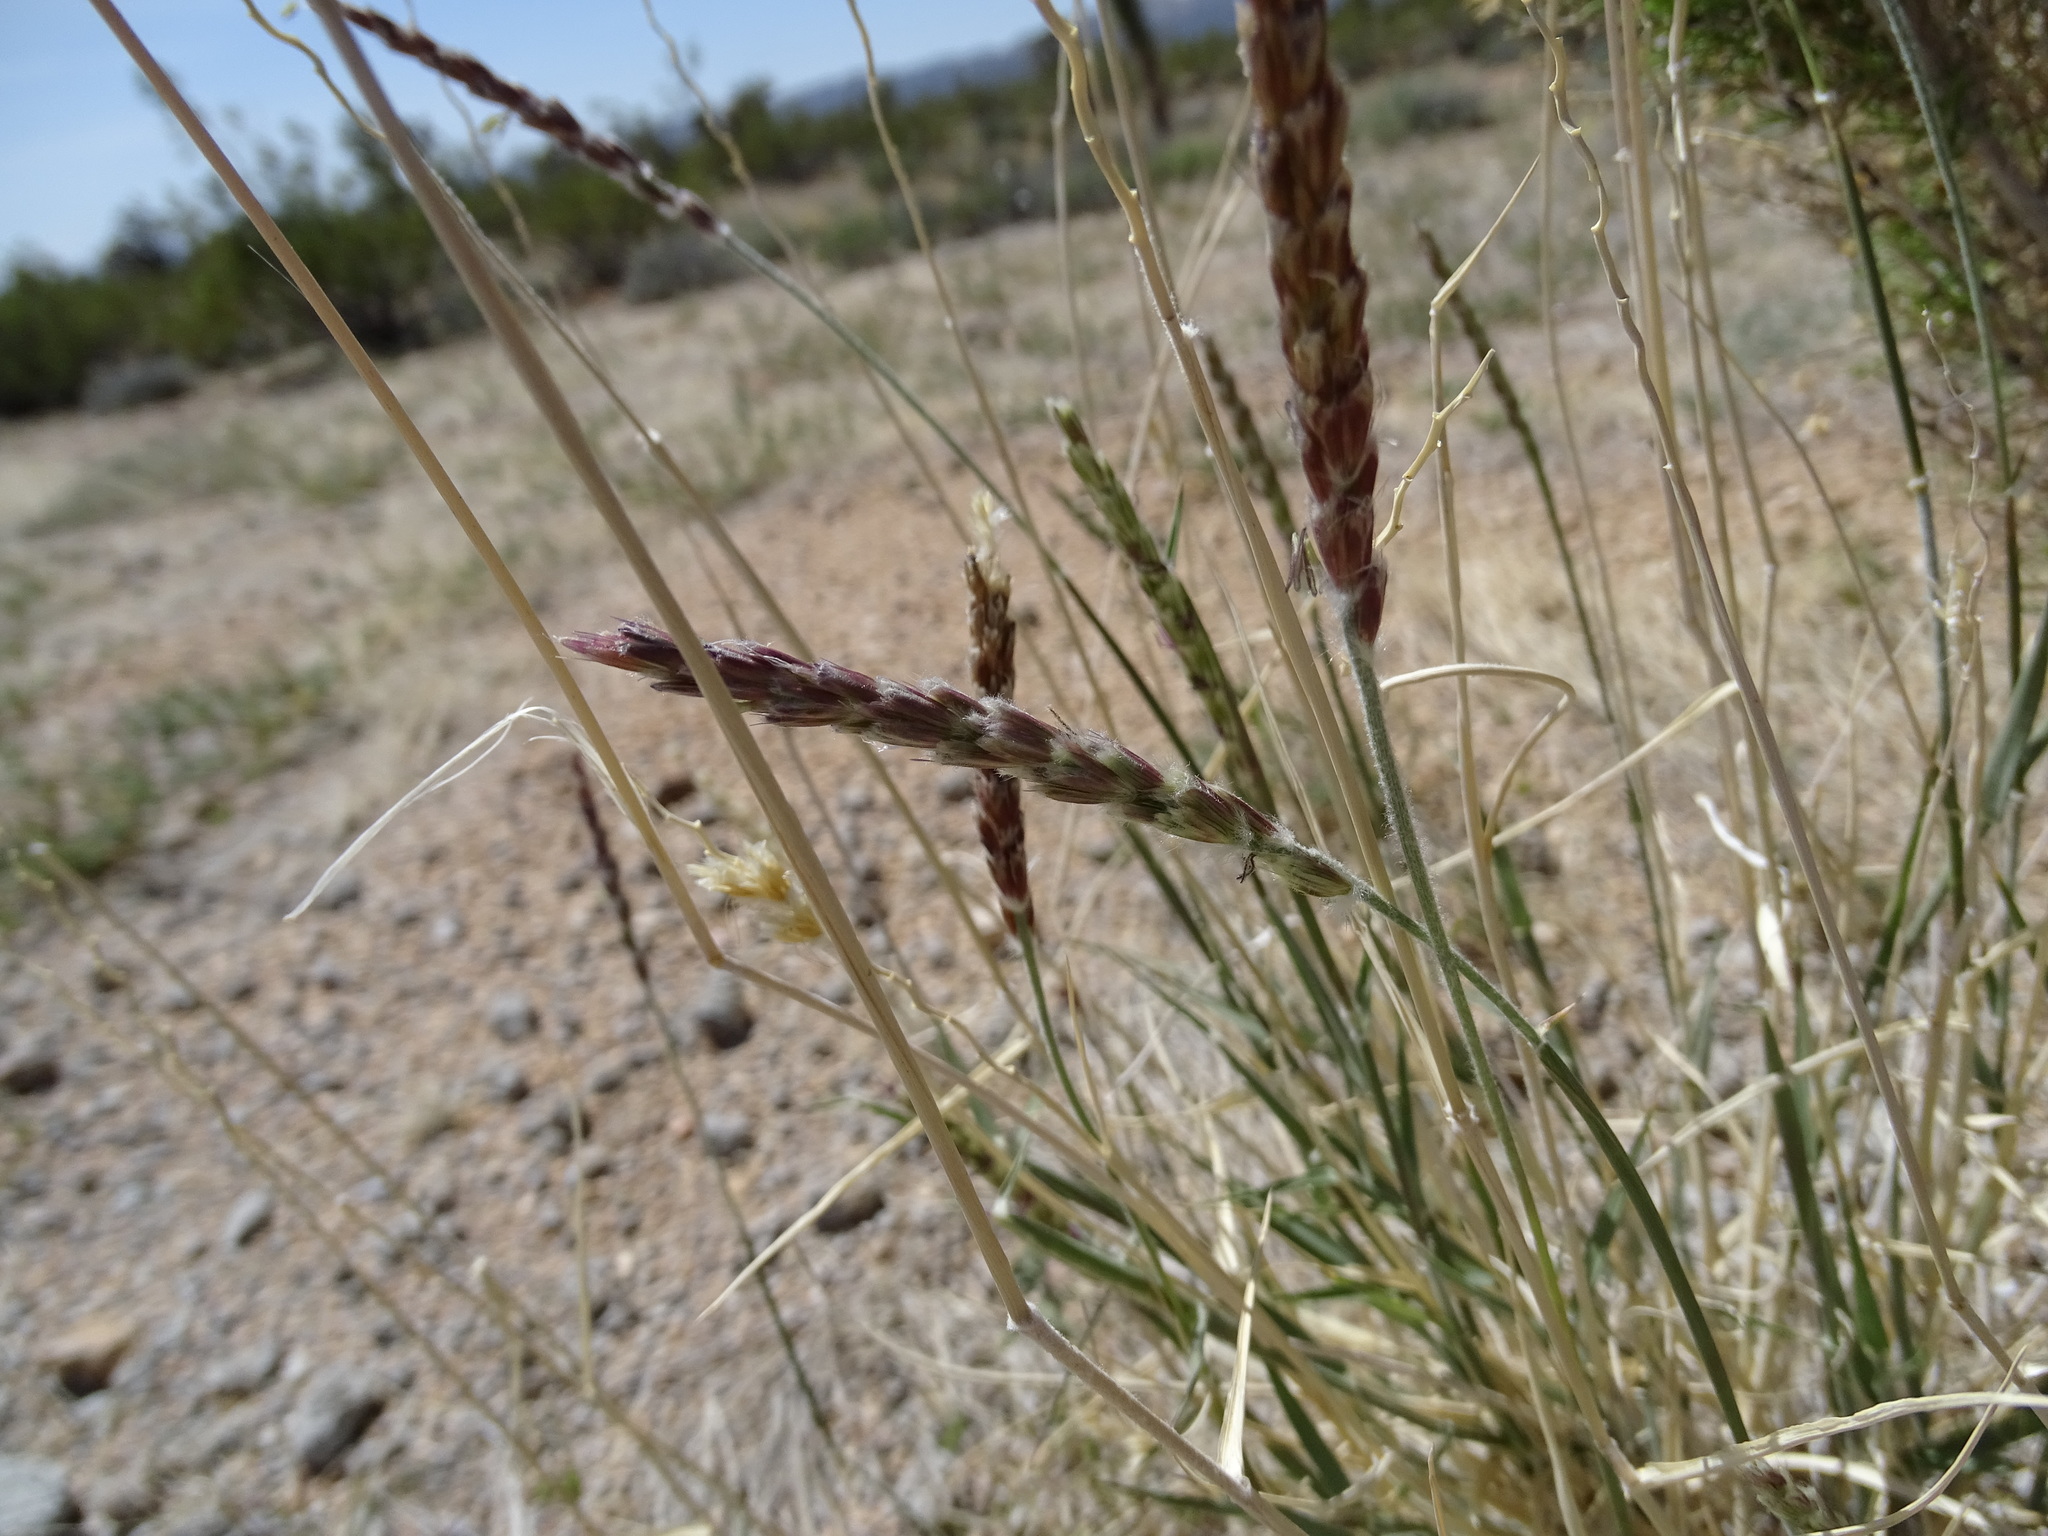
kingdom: Plantae
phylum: Tracheophyta
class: Liliopsida
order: Poales
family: Poaceae
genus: Hilaria
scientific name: Hilaria rigida
